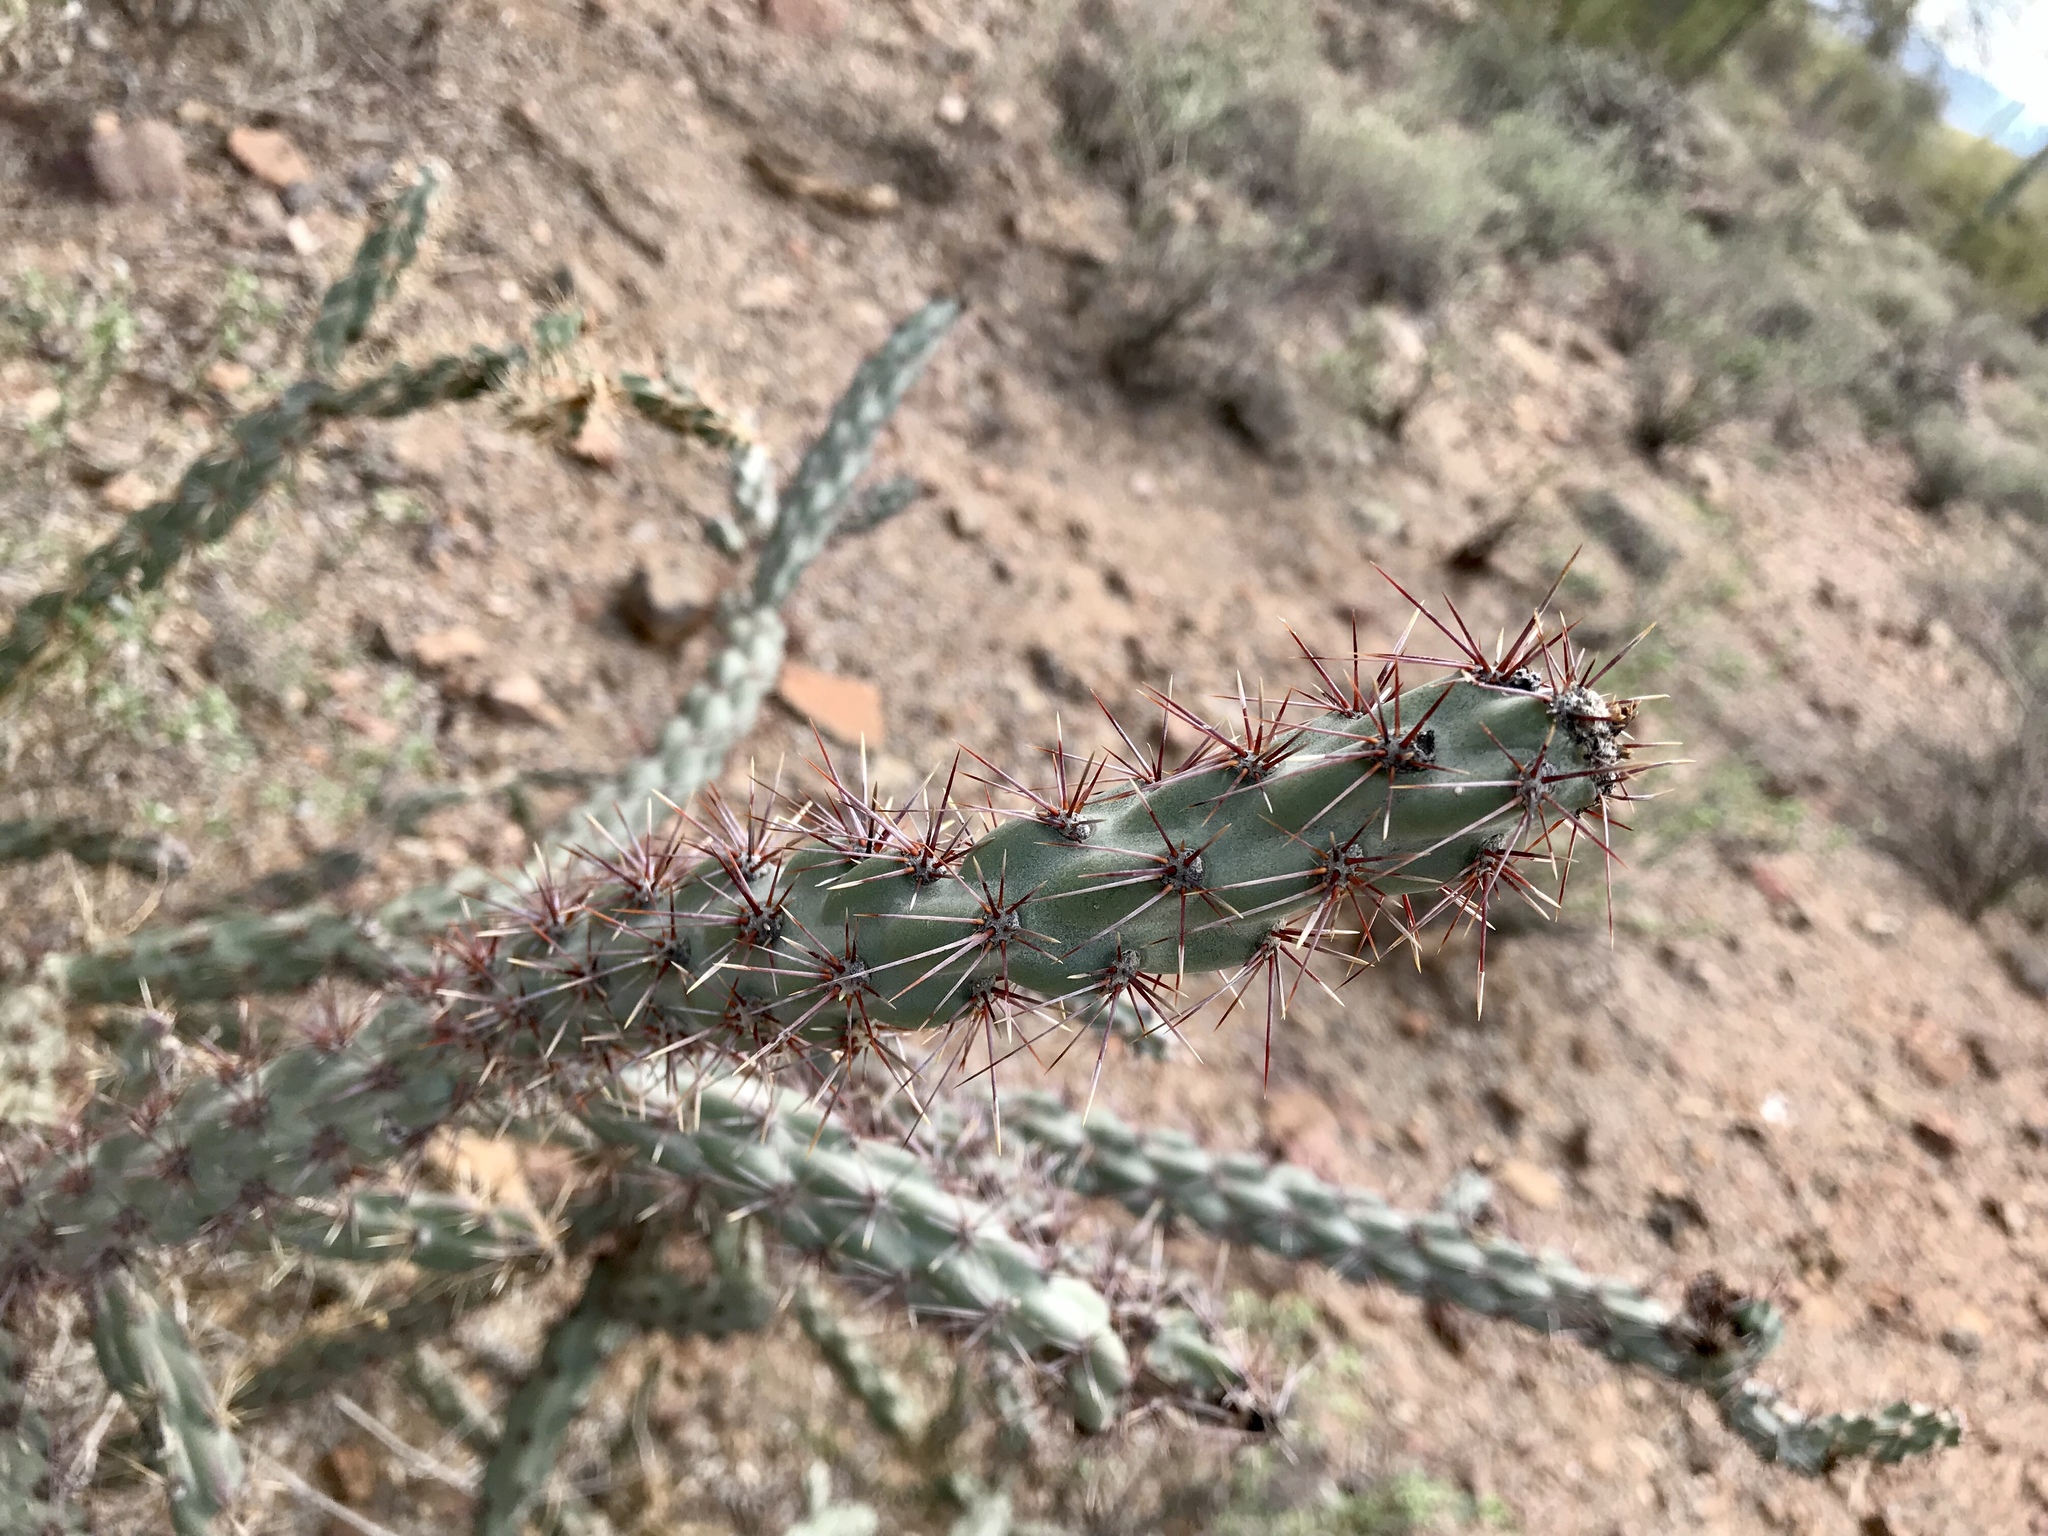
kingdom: Plantae
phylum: Tracheophyta
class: Magnoliopsida
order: Caryophyllales
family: Cactaceae
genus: Cylindropuntia
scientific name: Cylindropuntia acanthocarpa
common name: Buckhorn cholla
